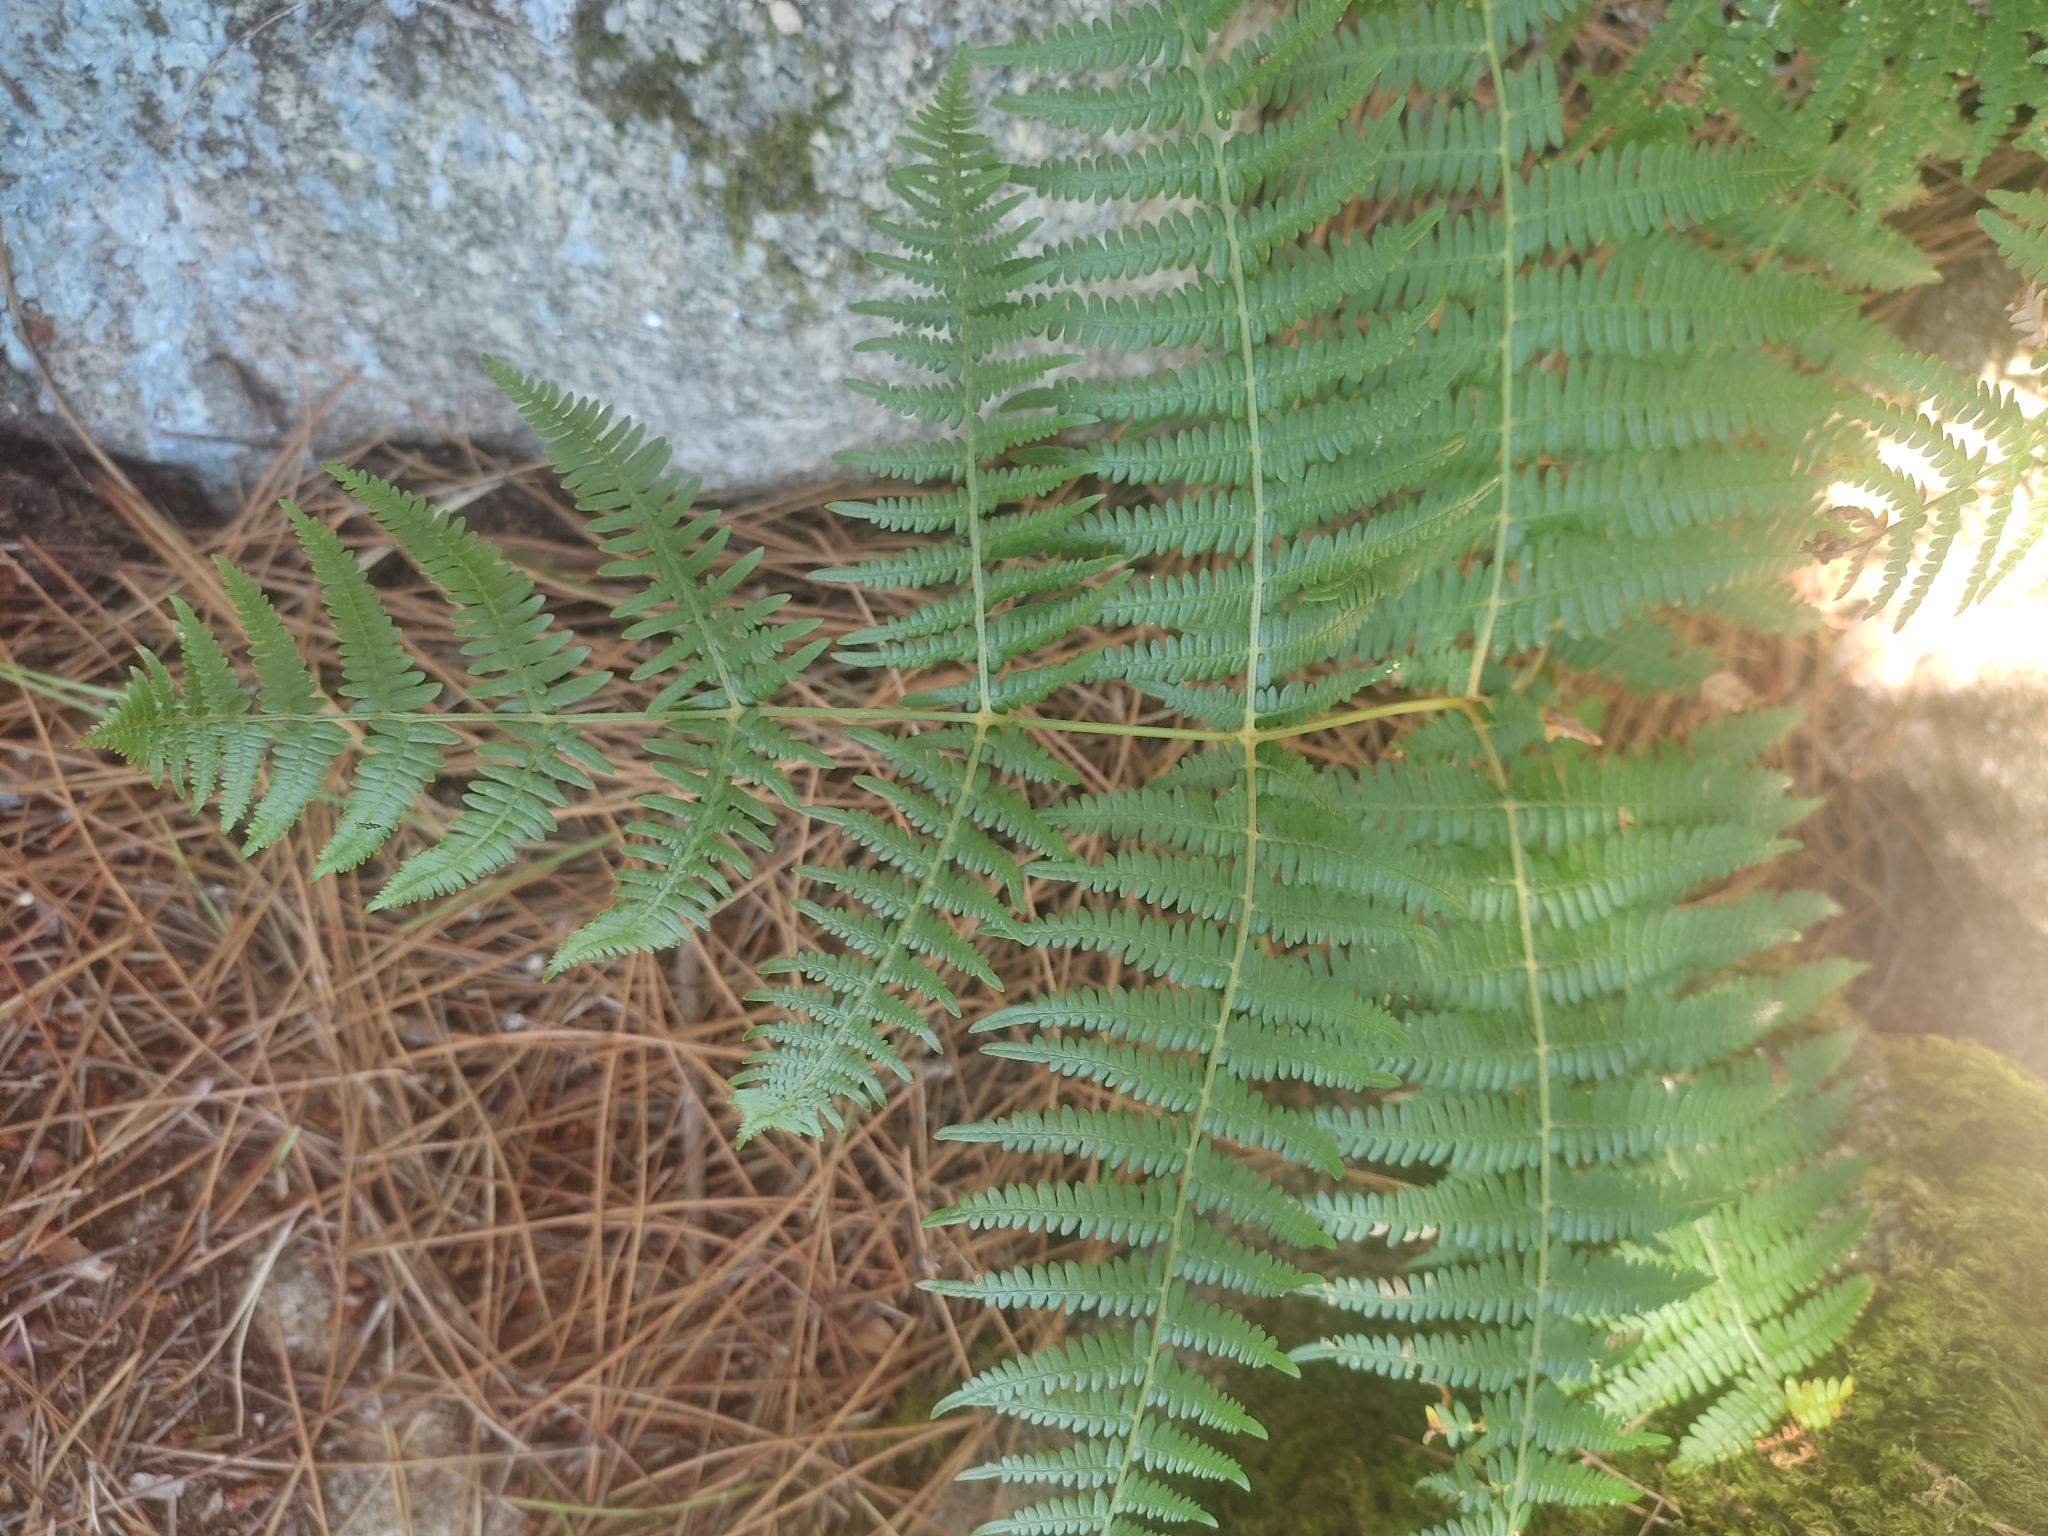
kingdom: Plantae
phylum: Tracheophyta
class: Polypodiopsida
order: Polypodiales
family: Dennstaedtiaceae
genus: Pteridium
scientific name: Pteridium aquilinum
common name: Bracken
